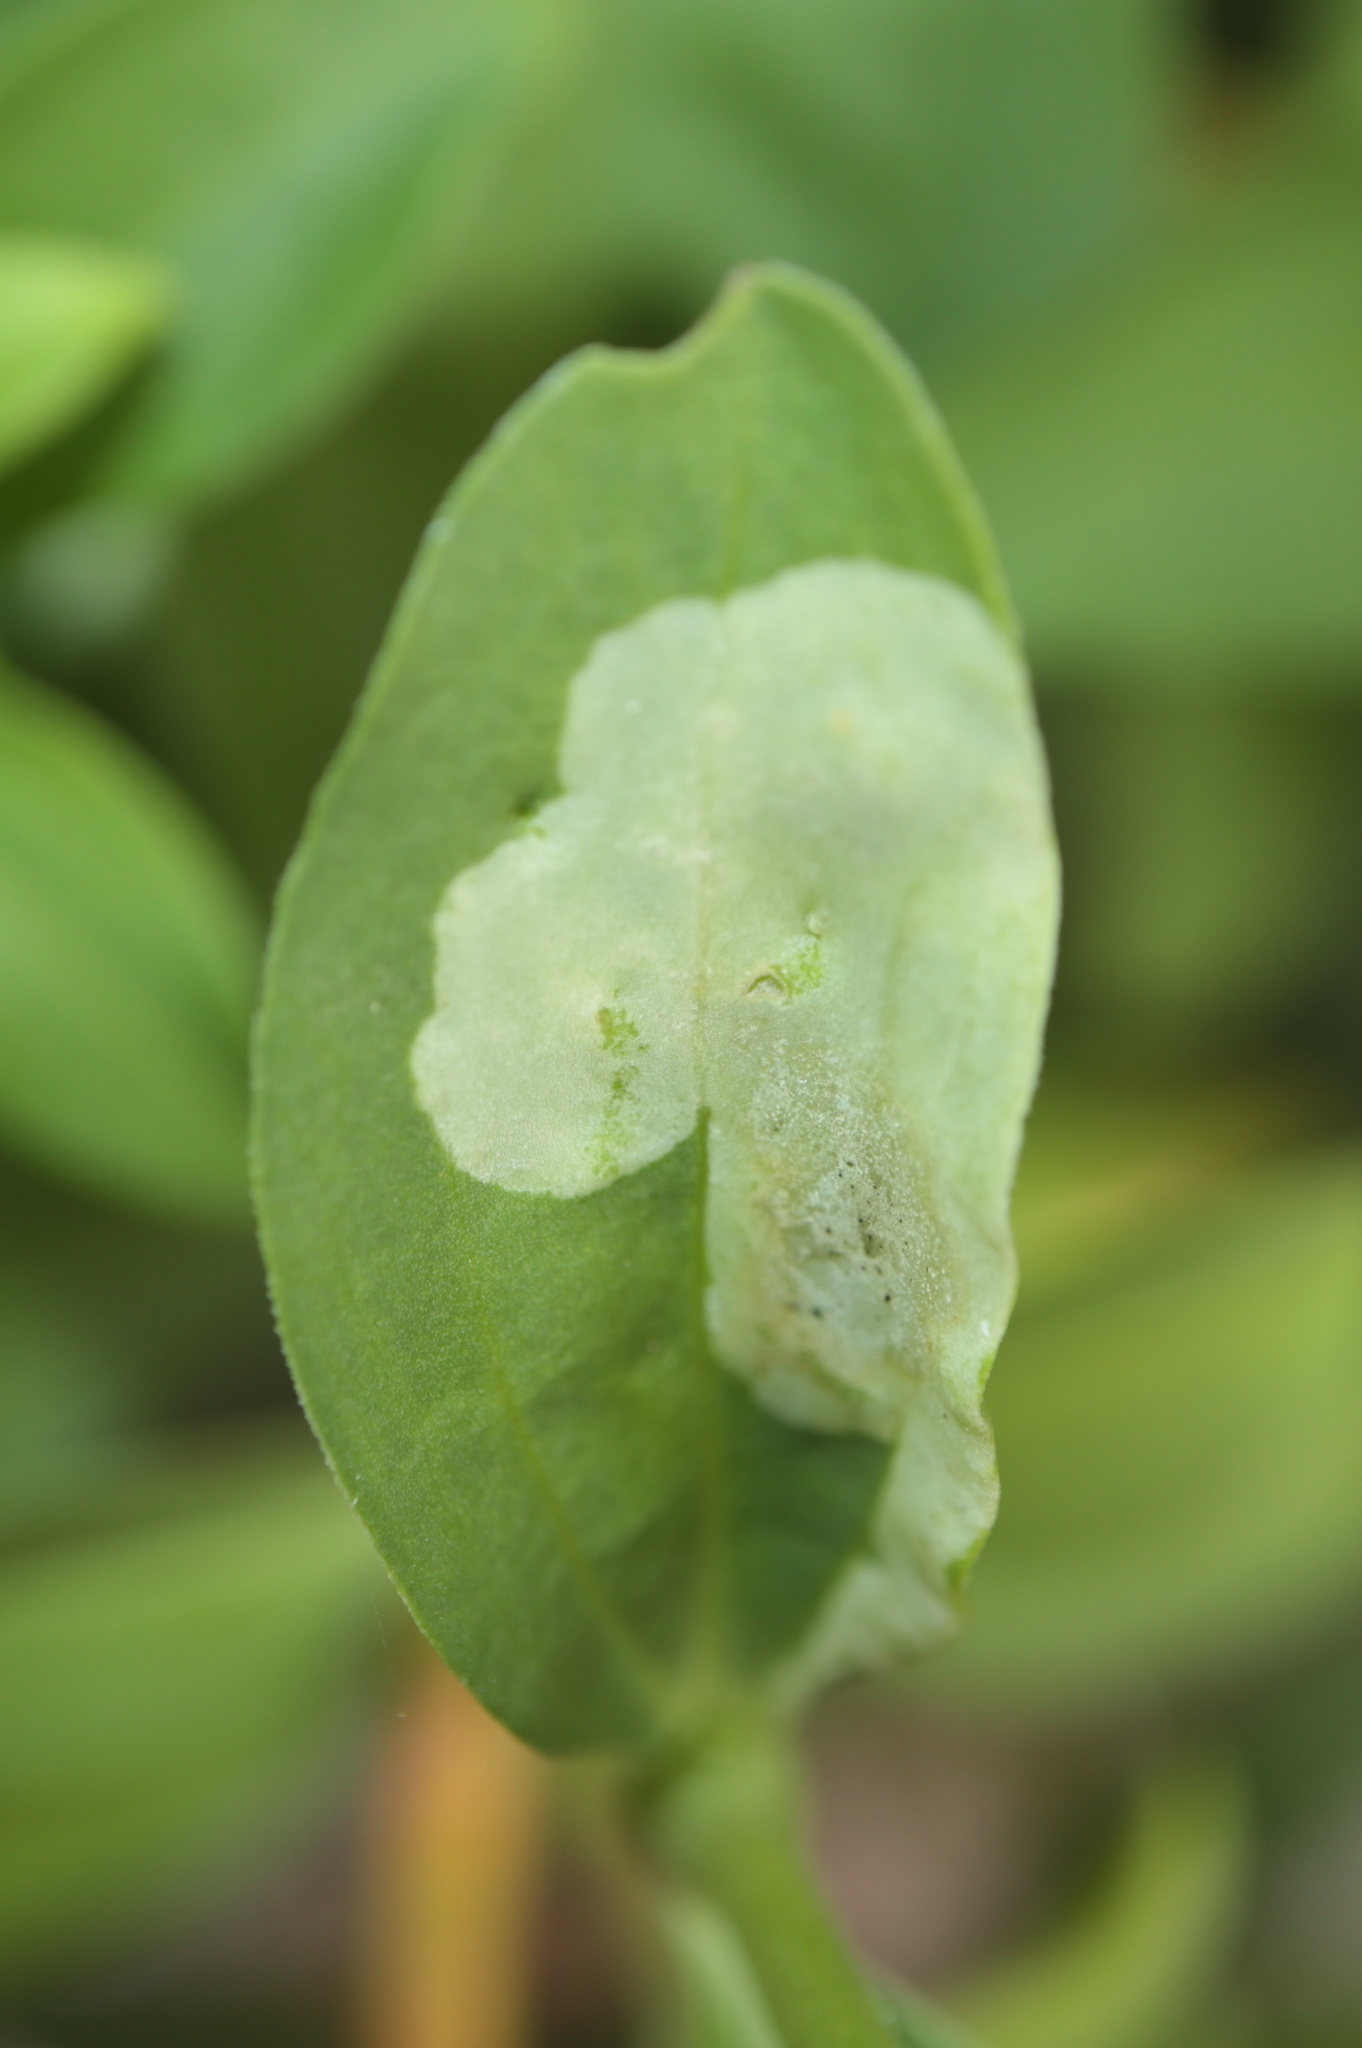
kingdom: Animalia
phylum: Arthropoda
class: Insecta
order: Diptera
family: Agromyzidae
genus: Amauromyza
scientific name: Amauromyza flavifrons
